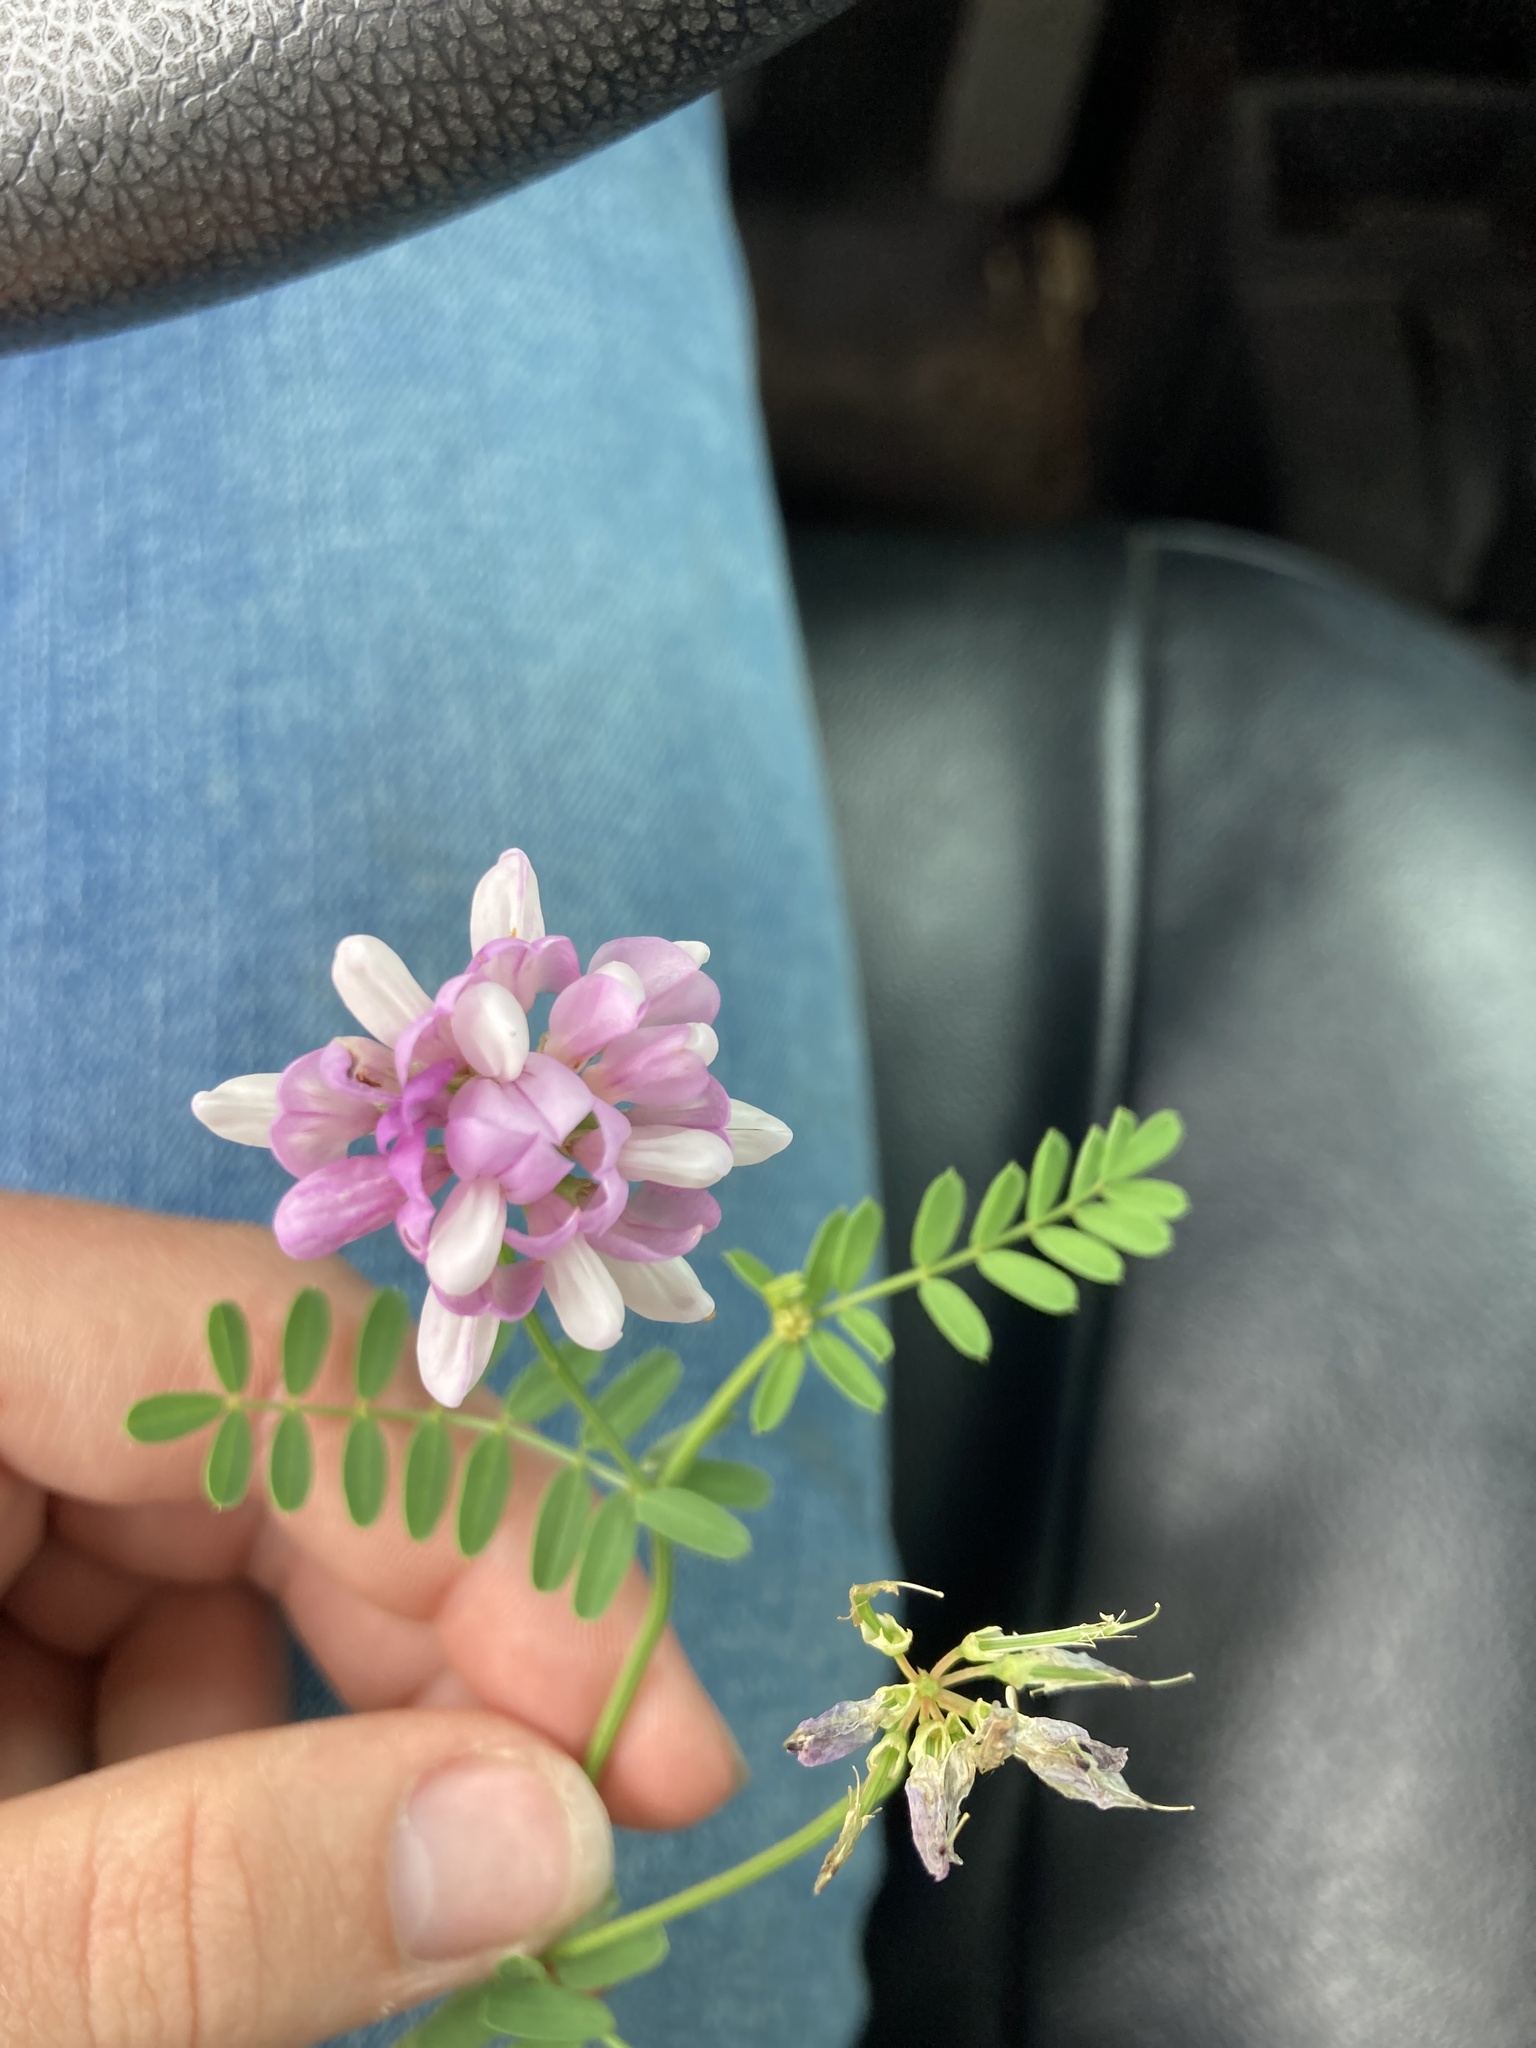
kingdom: Plantae
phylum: Tracheophyta
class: Magnoliopsida
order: Fabales
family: Fabaceae
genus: Coronilla
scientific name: Coronilla varia
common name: Crownvetch
